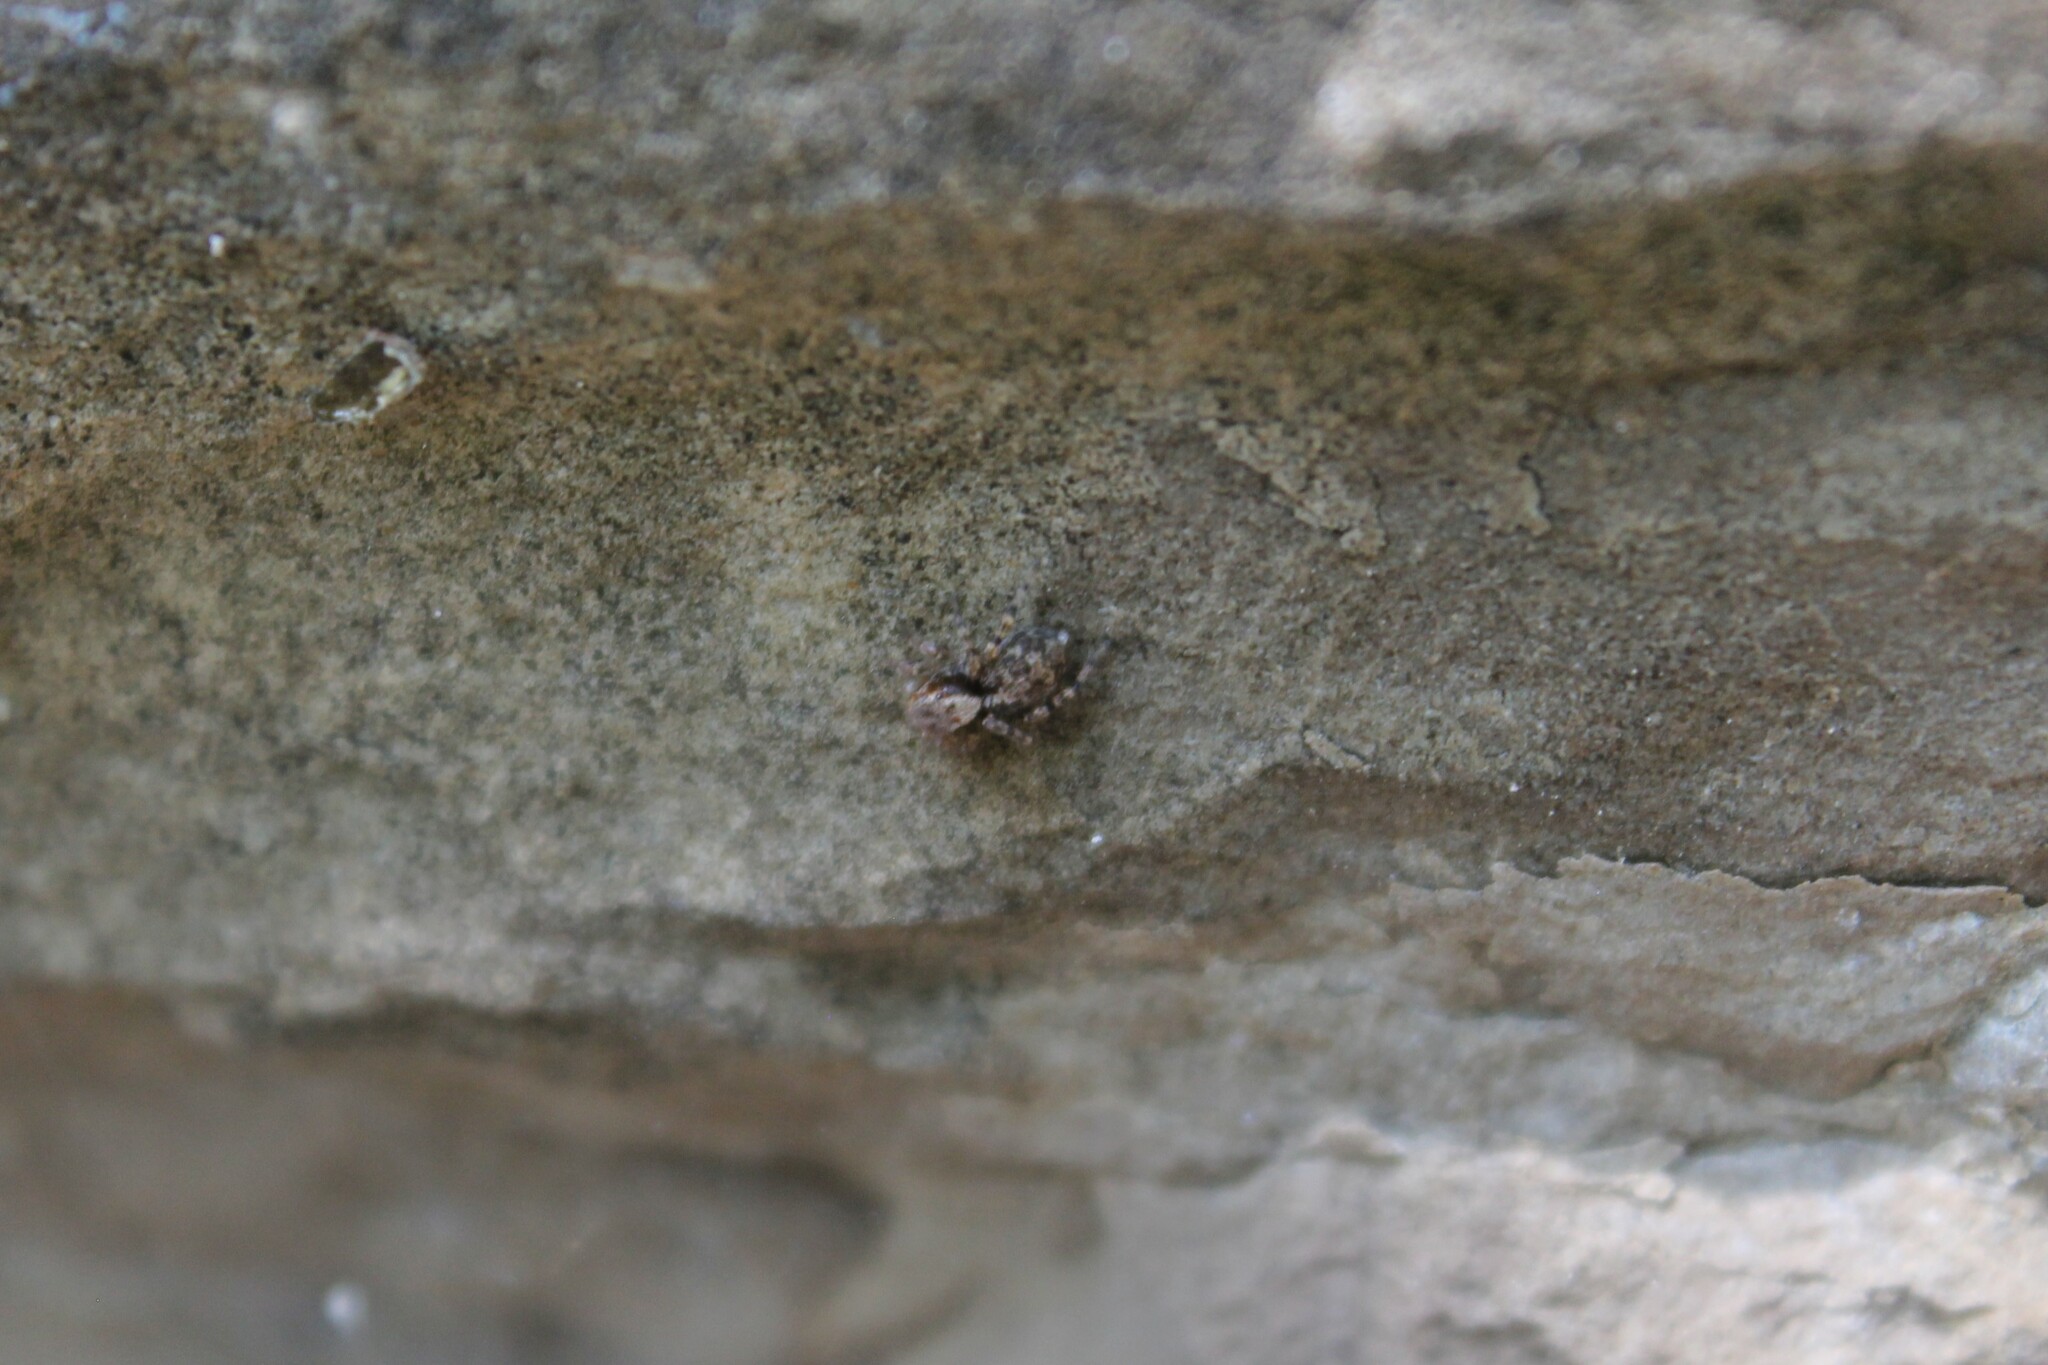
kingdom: Animalia
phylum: Arthropoda
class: Arachnida
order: Araneae
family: Salticidae
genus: Naphrys
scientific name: Naphrys pulex
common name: Flea jumping spider
